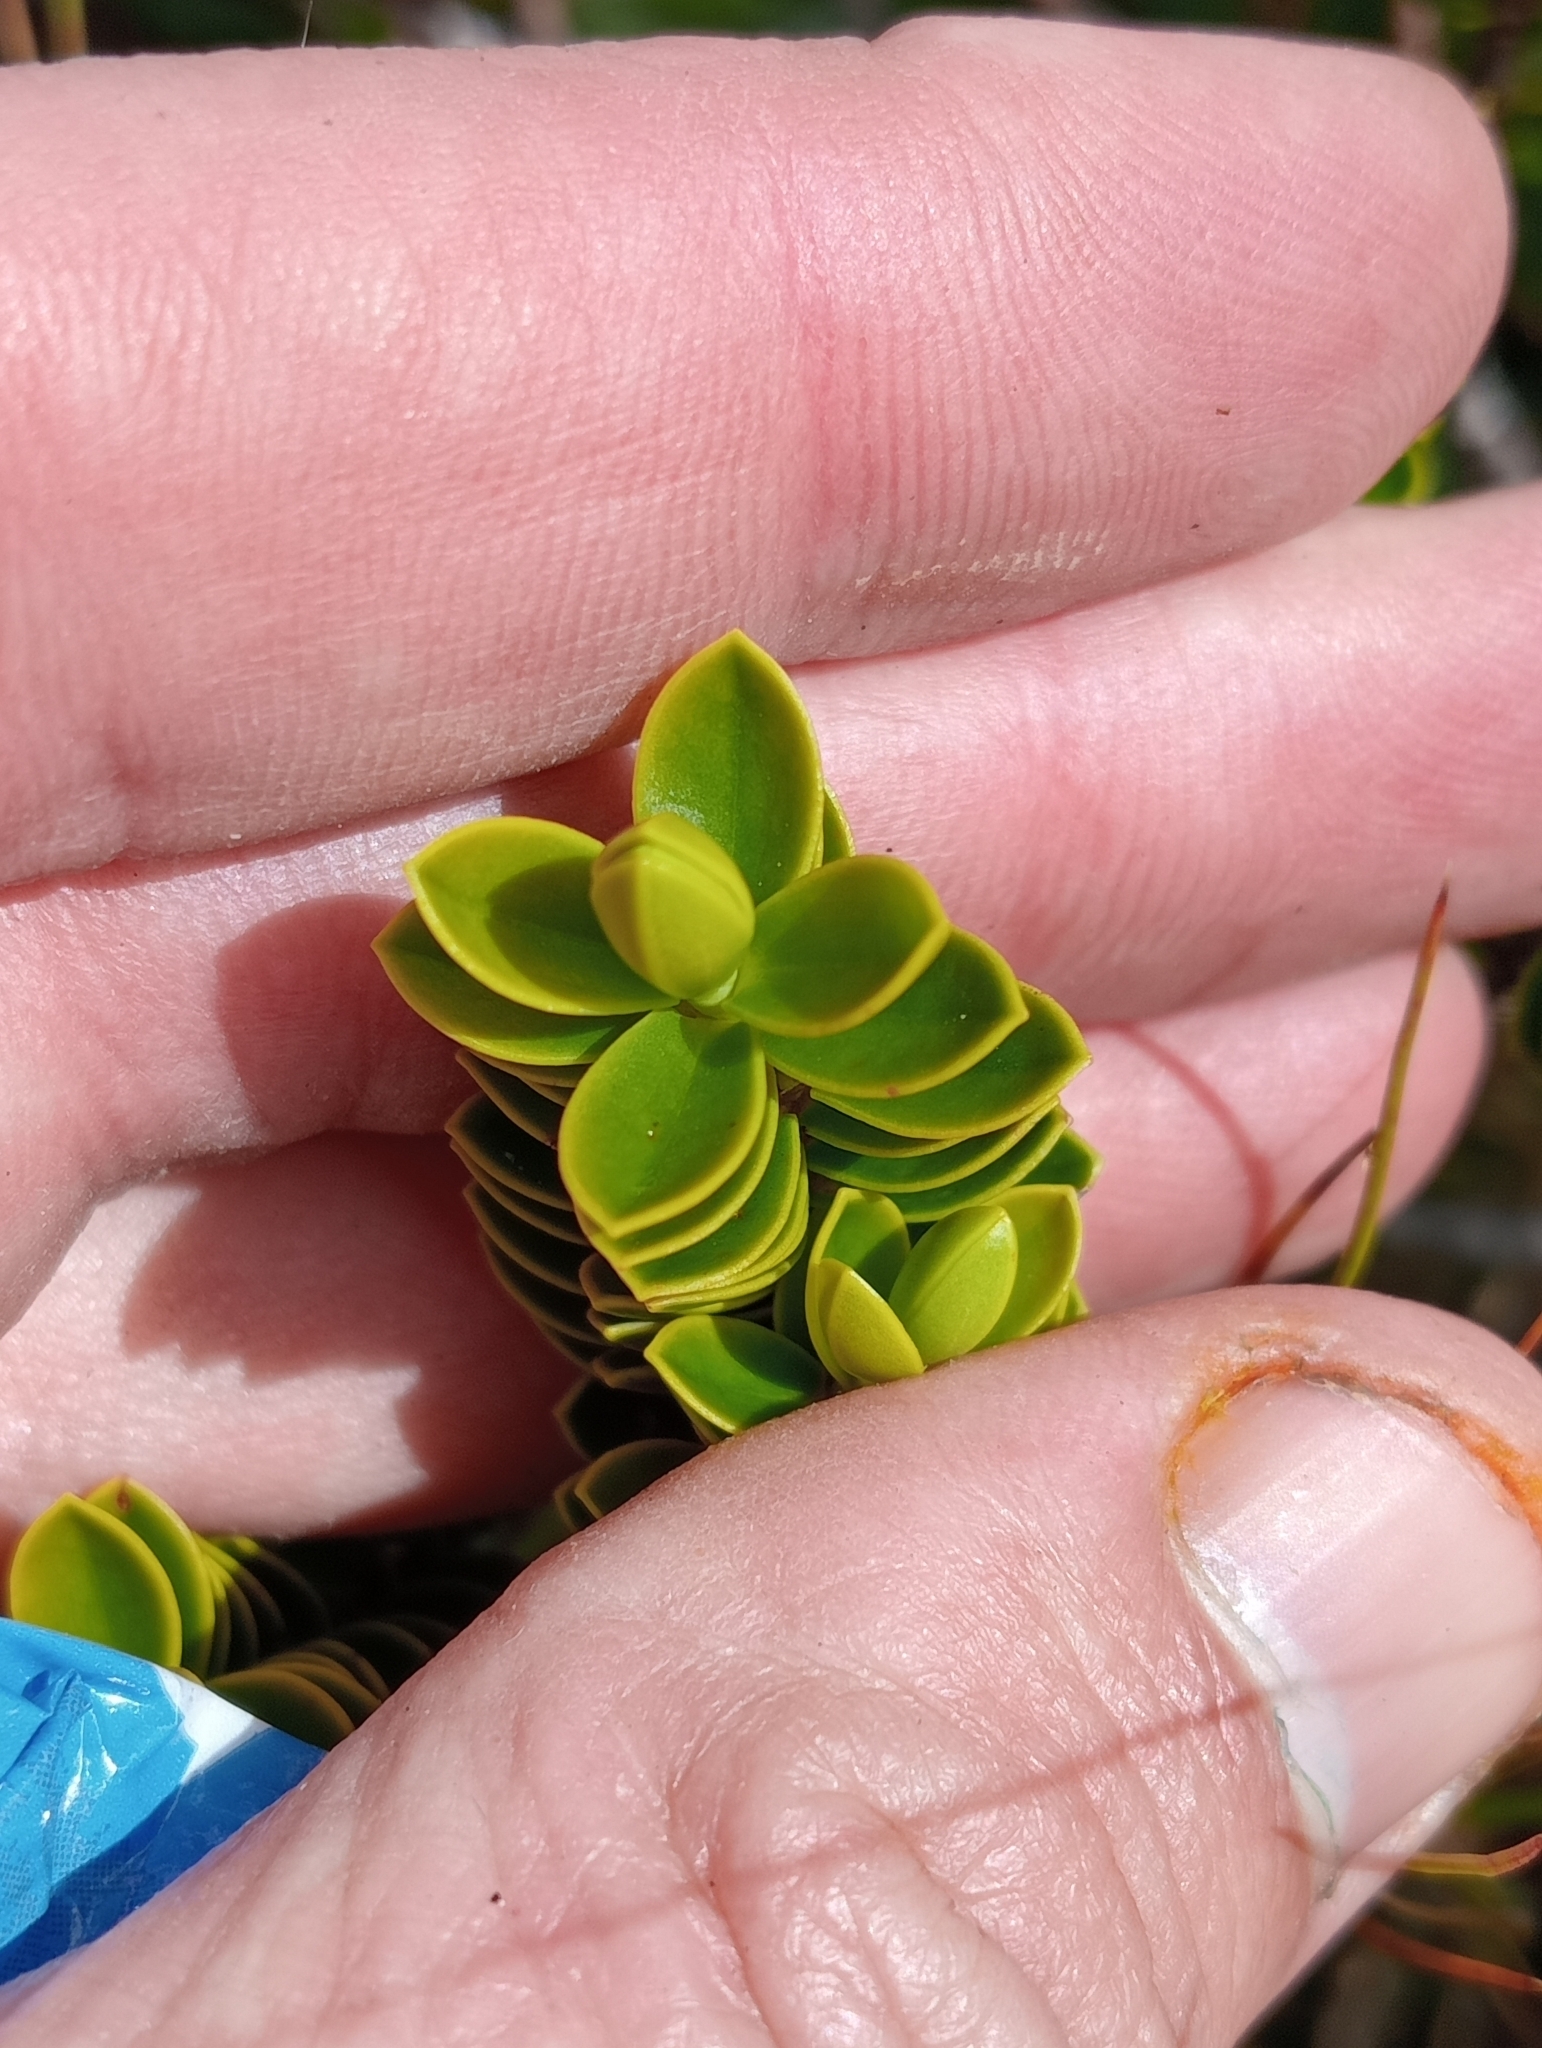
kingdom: Plantae
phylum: Tracheophyta
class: Magnoliopsida
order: Lamiales
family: Plantaginaceae
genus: Veronica
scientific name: Veronica odora
